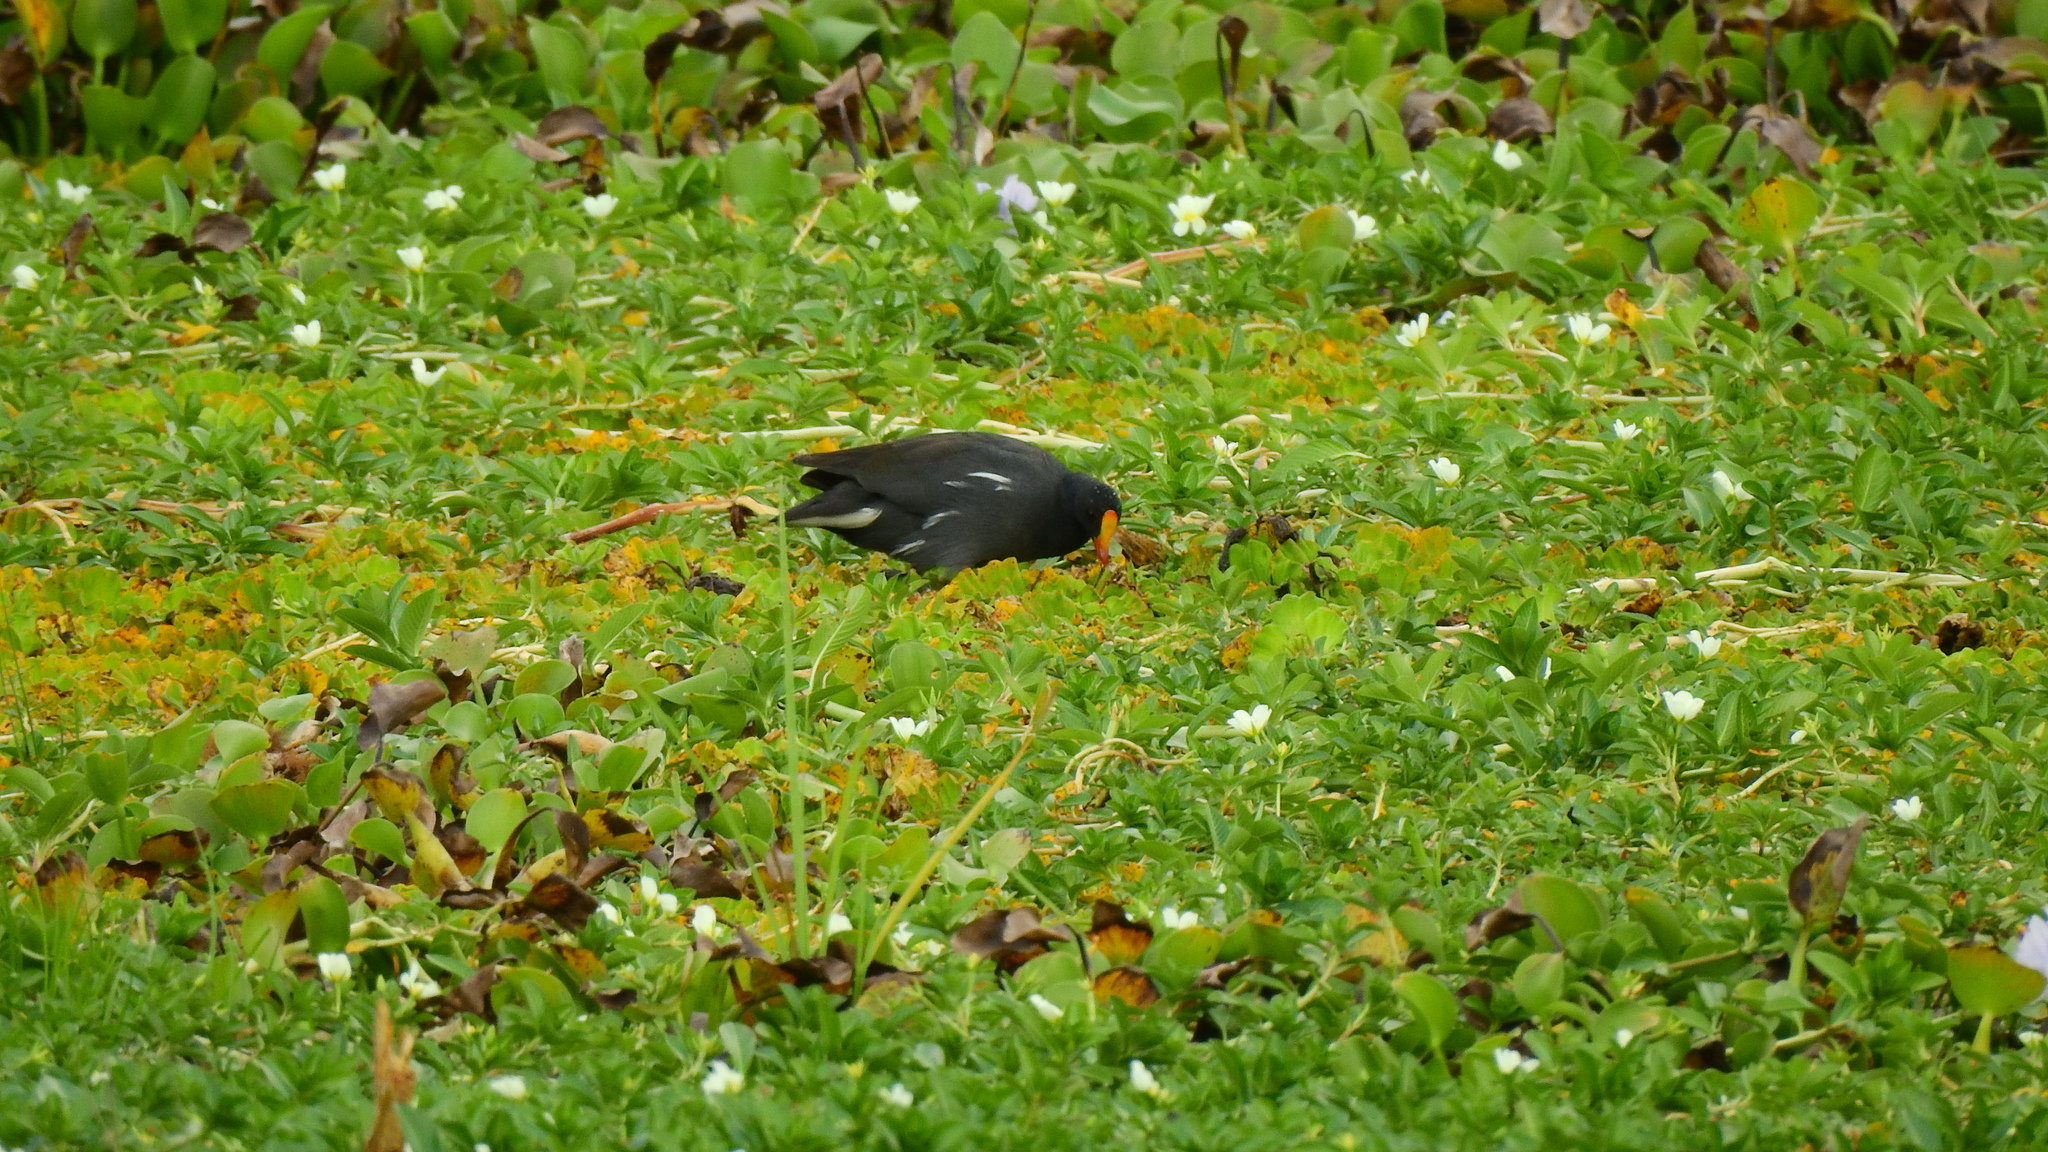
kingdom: Animalia
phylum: Chordata
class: Aves
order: Gruiformes
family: Rallidae
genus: Gallinula
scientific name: Gallinula chloropus
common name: Common moorhen
